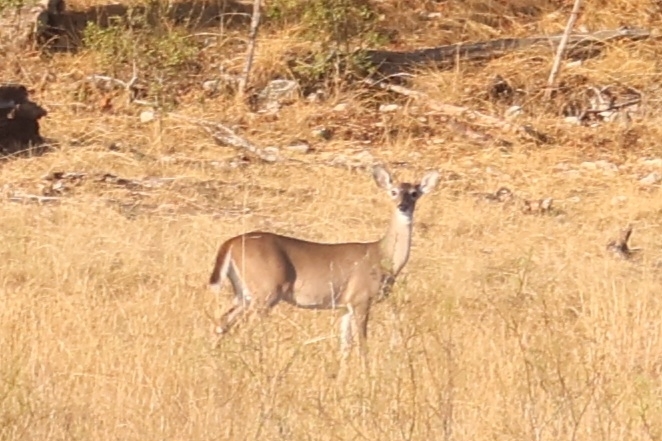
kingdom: Animalia
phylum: Chordata
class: Mammalia
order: Artiodactyla
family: Cervidae
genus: Odocoileus
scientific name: Odocoileus virginianus
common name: White-tailed deer
